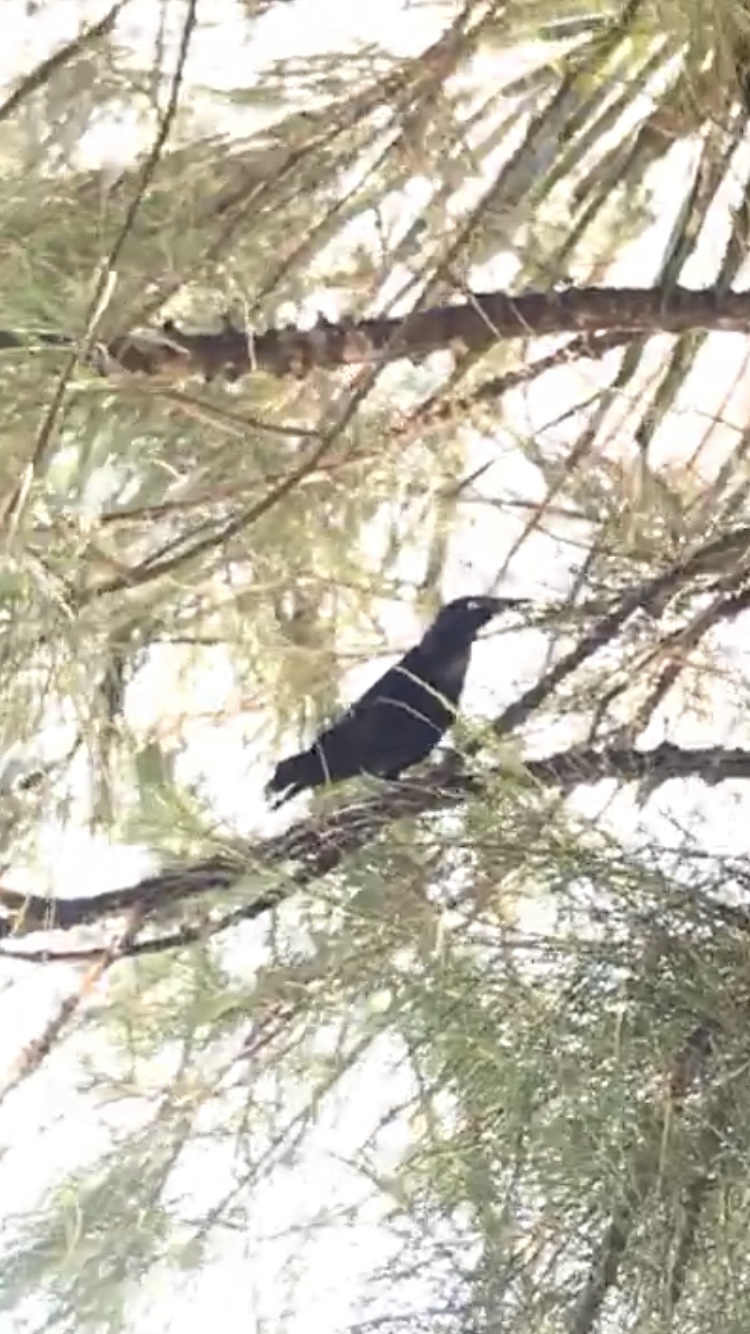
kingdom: Animalia
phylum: Chordata
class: Aves
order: Passeriformes
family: Icteridae
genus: Quiscalus
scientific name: Quiscalus niger
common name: Greater antillean grackle
